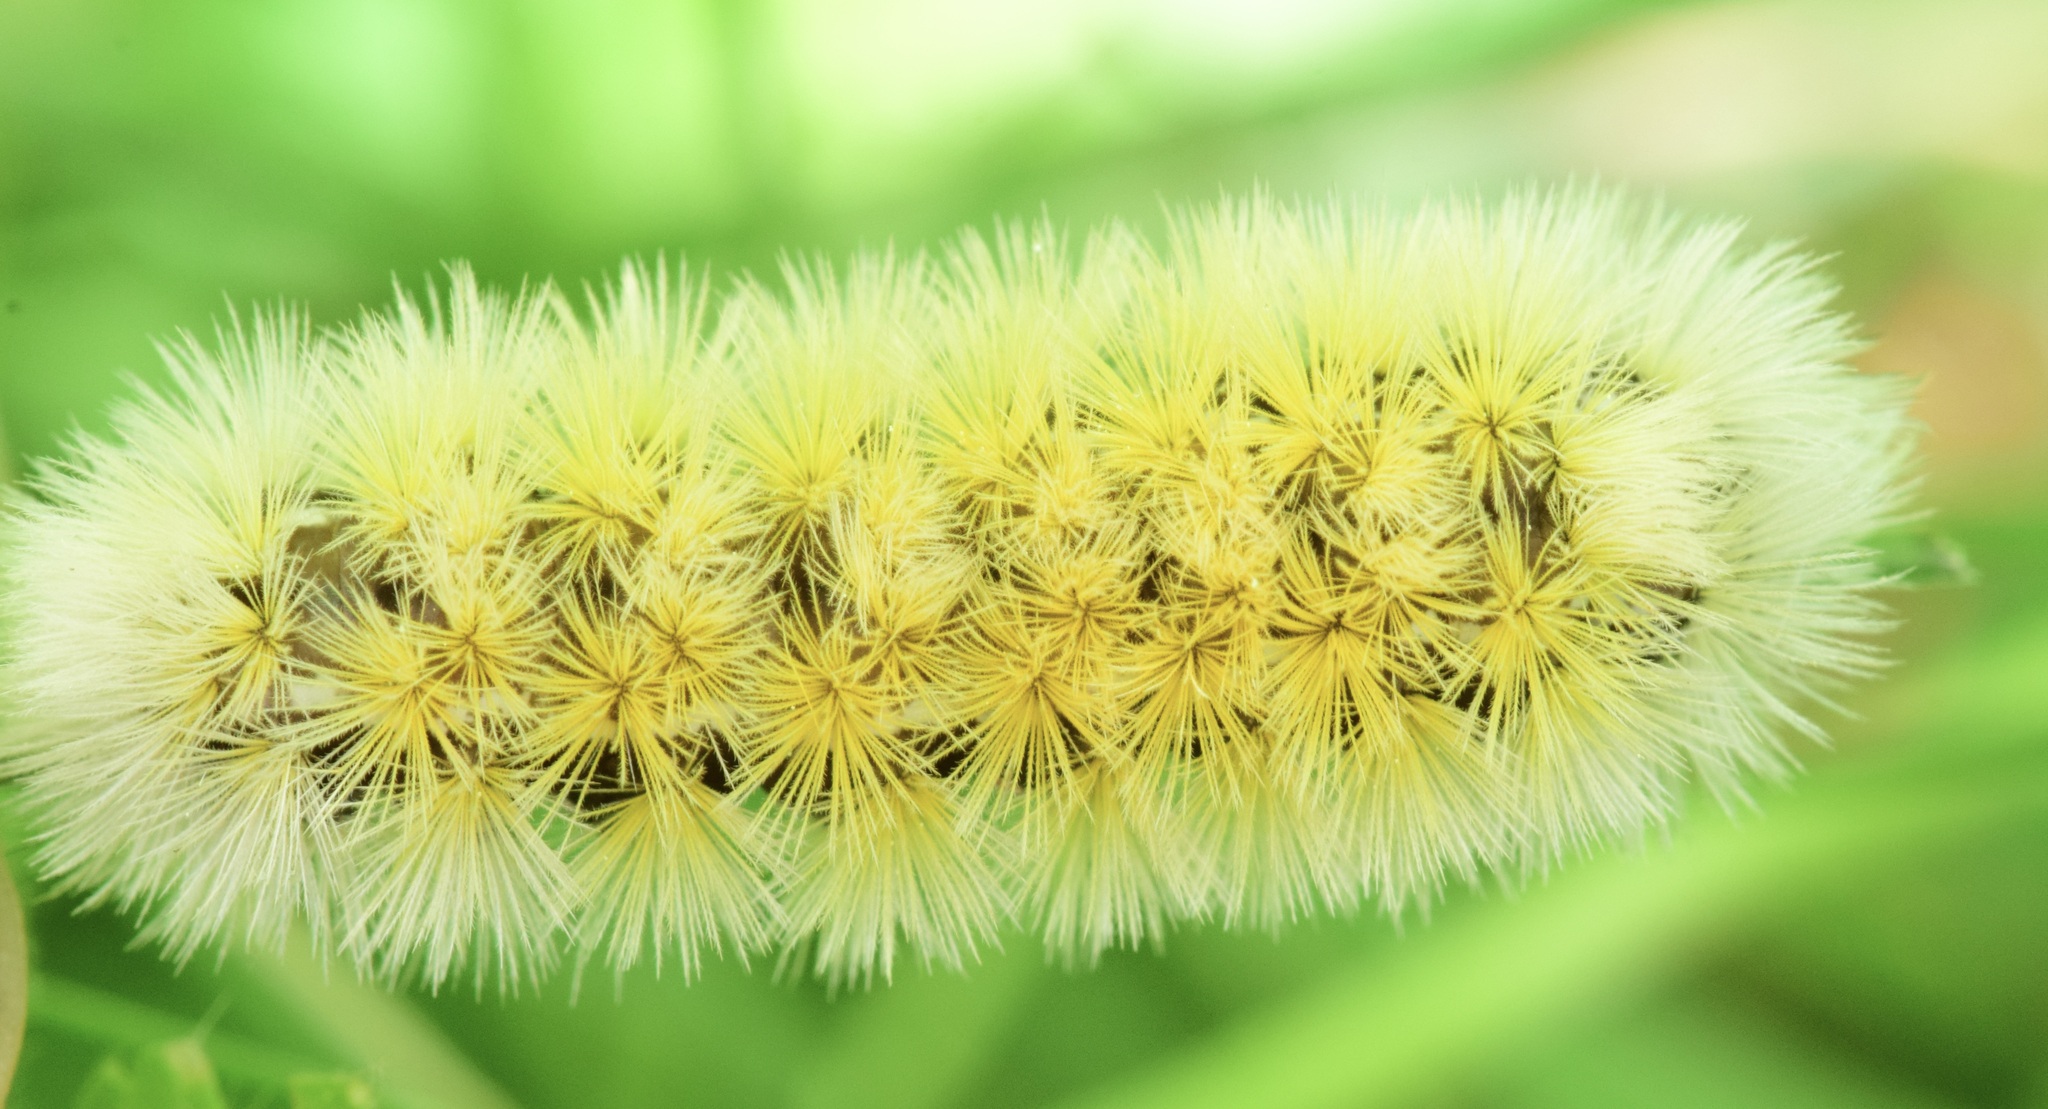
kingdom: Animalia
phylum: Arthropoda
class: Insecta
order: Lepidoptera
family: Erebidae
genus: Ctenucha
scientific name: Ctenucha virginica
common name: Virginia ctenucha moth
